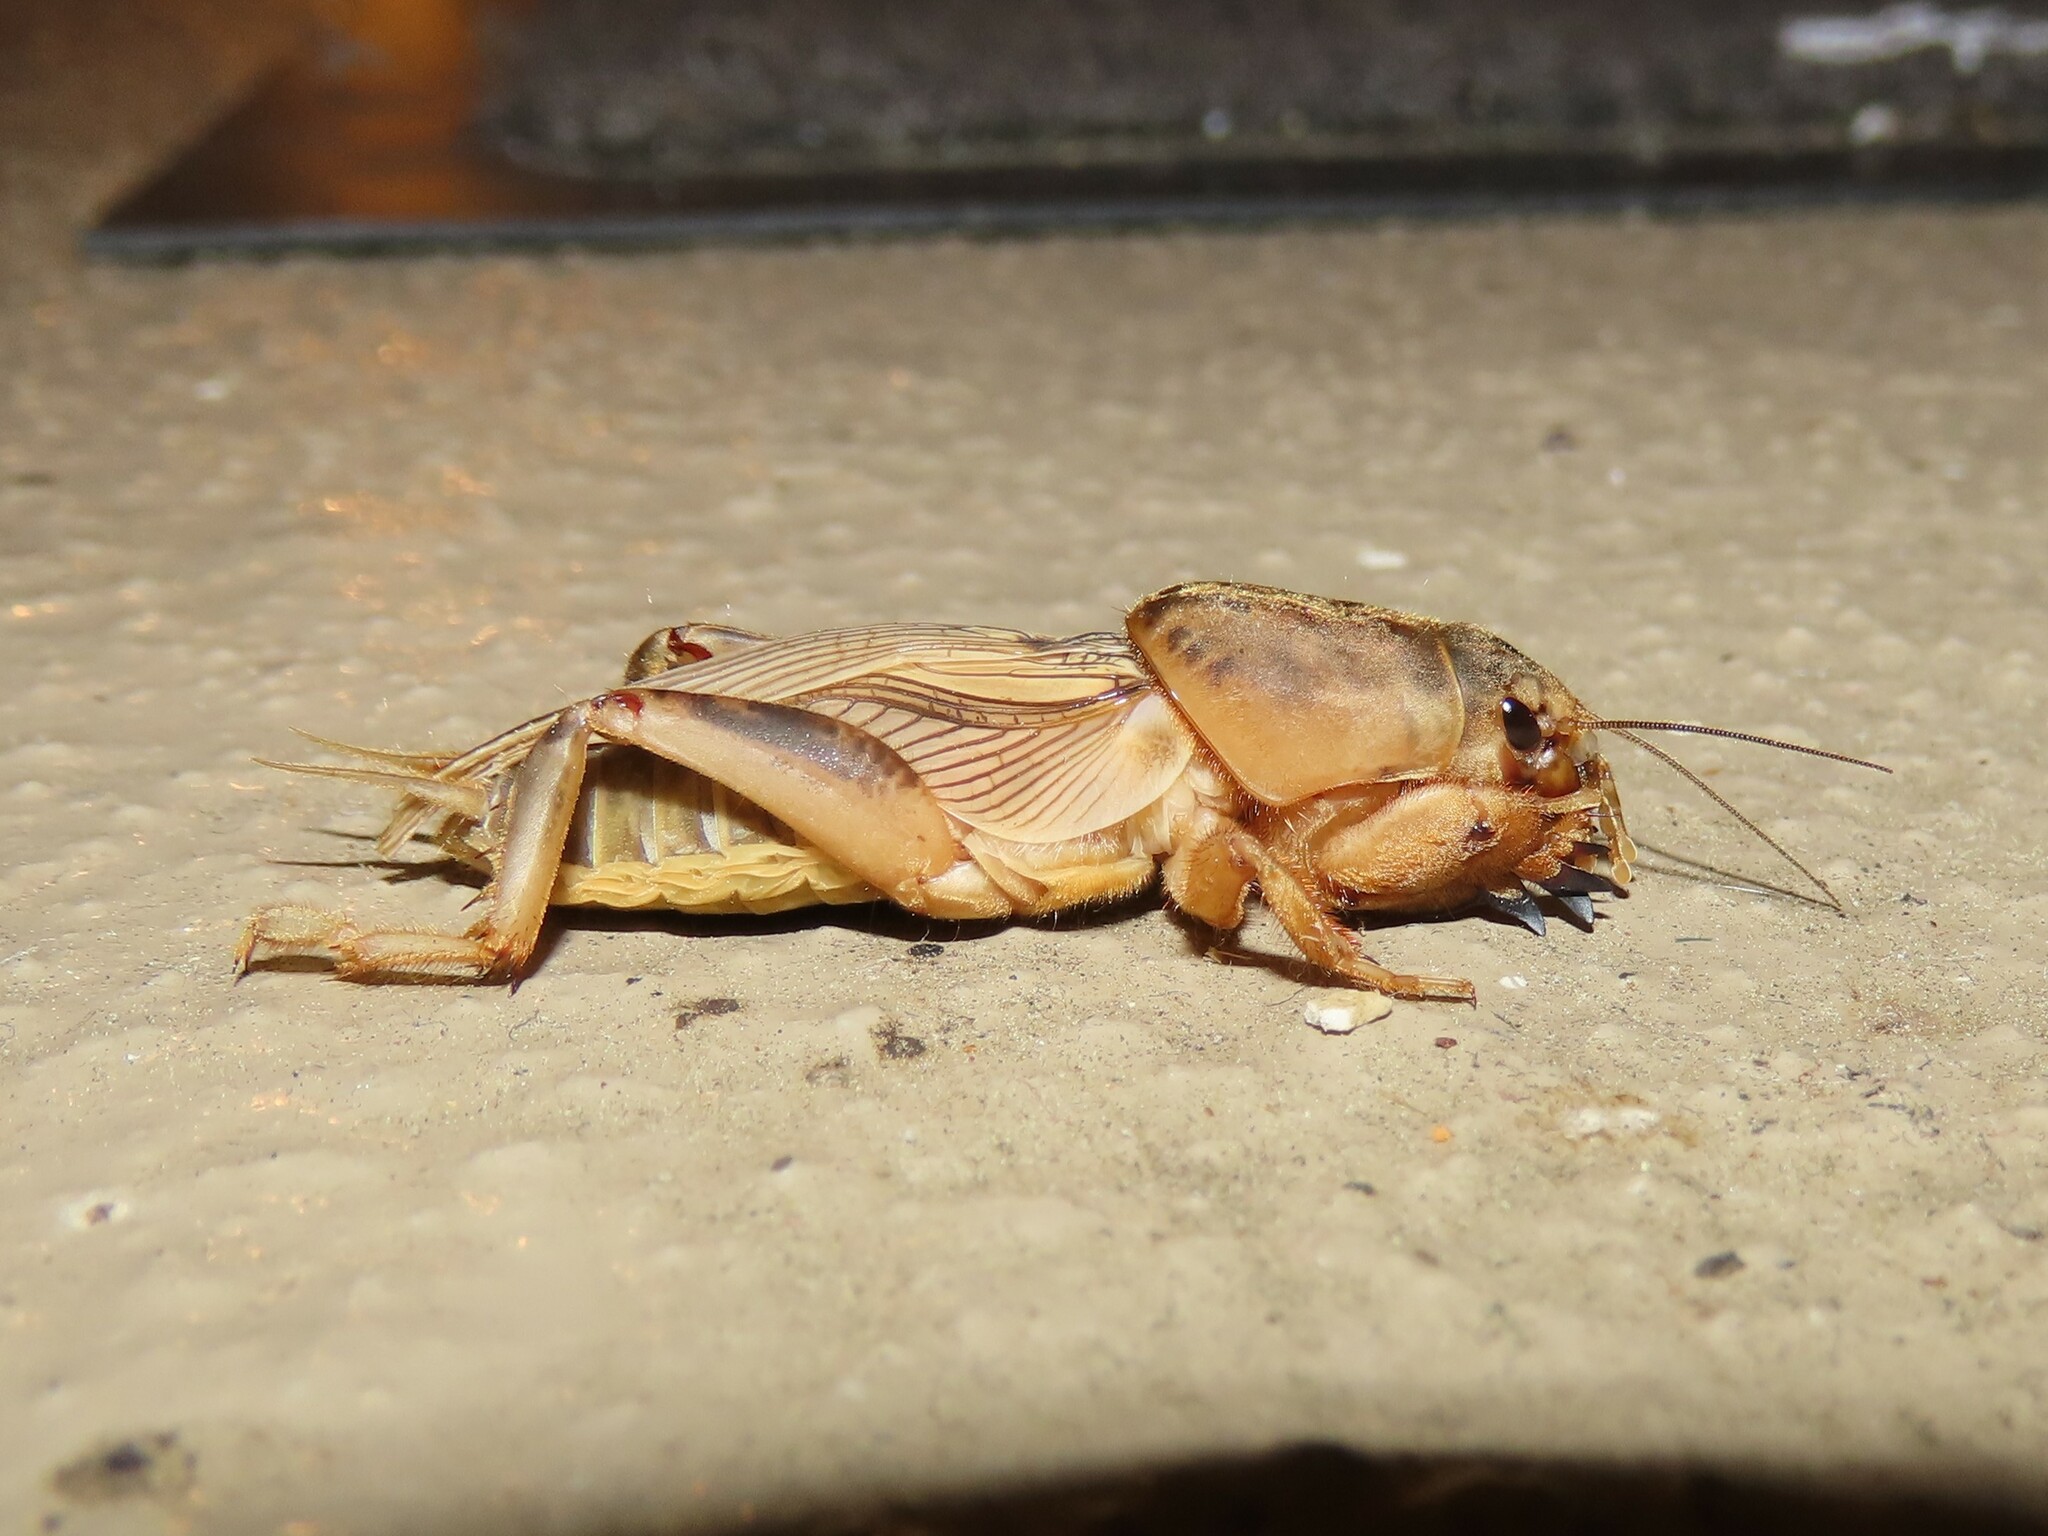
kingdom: Animalia
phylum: Arthropoda
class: Insecta
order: Orthoptera
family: Gryllotalpidae
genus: Neoscapteriscus
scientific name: Neoscapteriscus vicinus
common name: Tawny mole cricket
